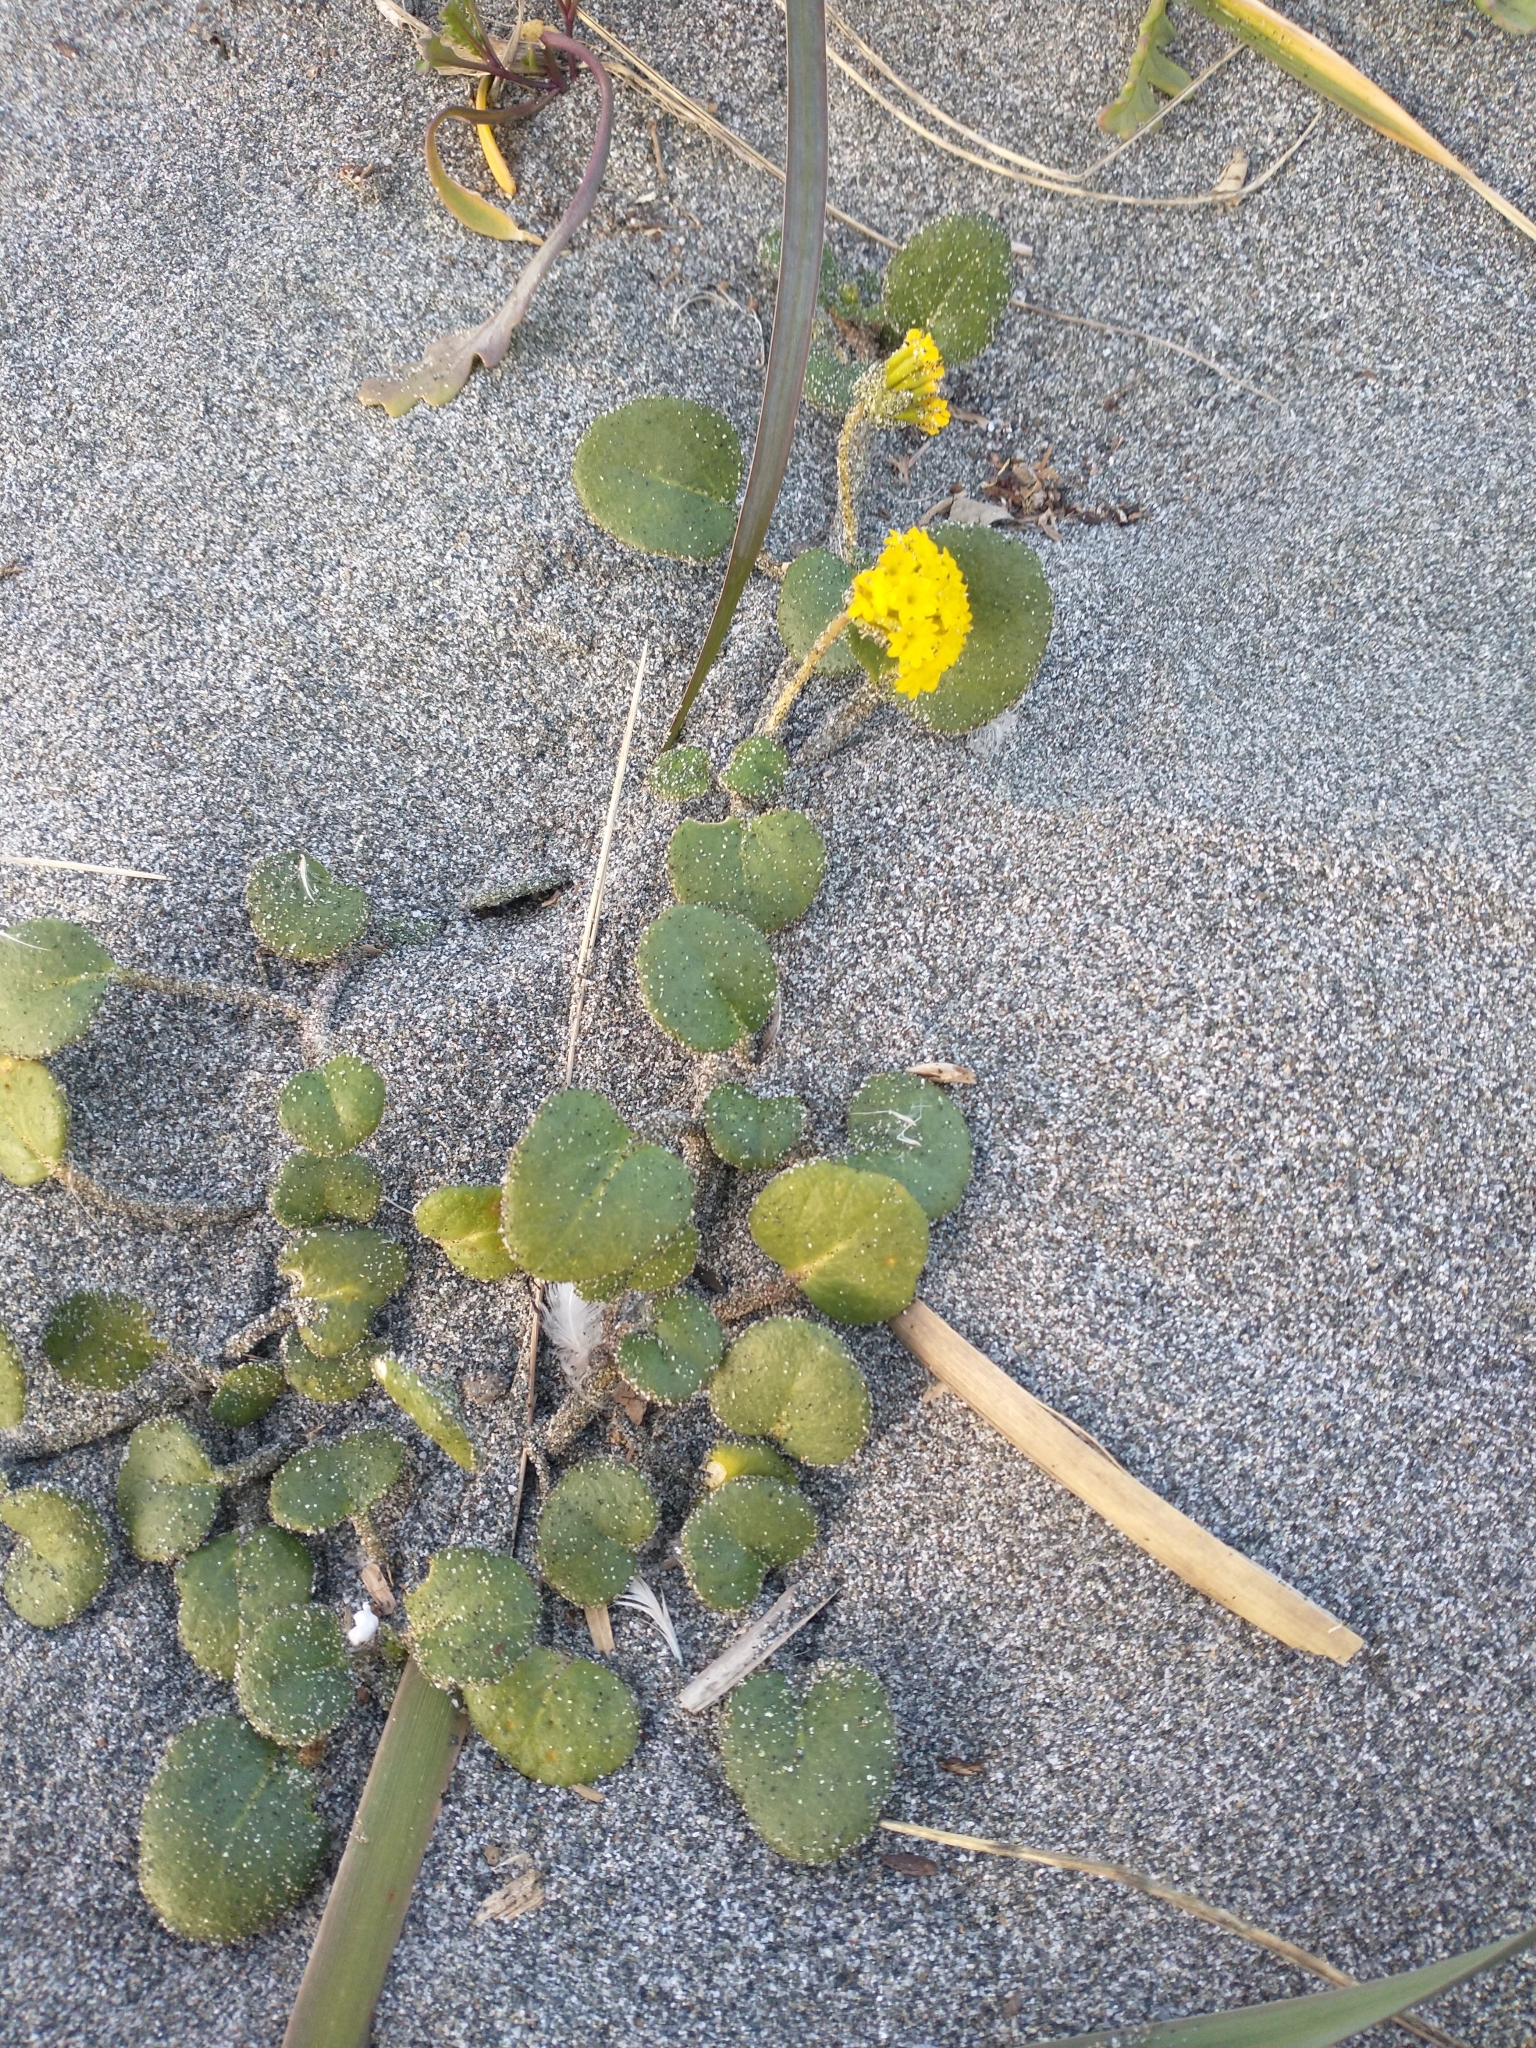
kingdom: Plantae
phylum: Tracheophyta
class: Magnoliopsida
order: Caryophyllales
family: Nyctaginaceae
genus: Abronia
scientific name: Abronia latifolia
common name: Yellow sand-verbena
